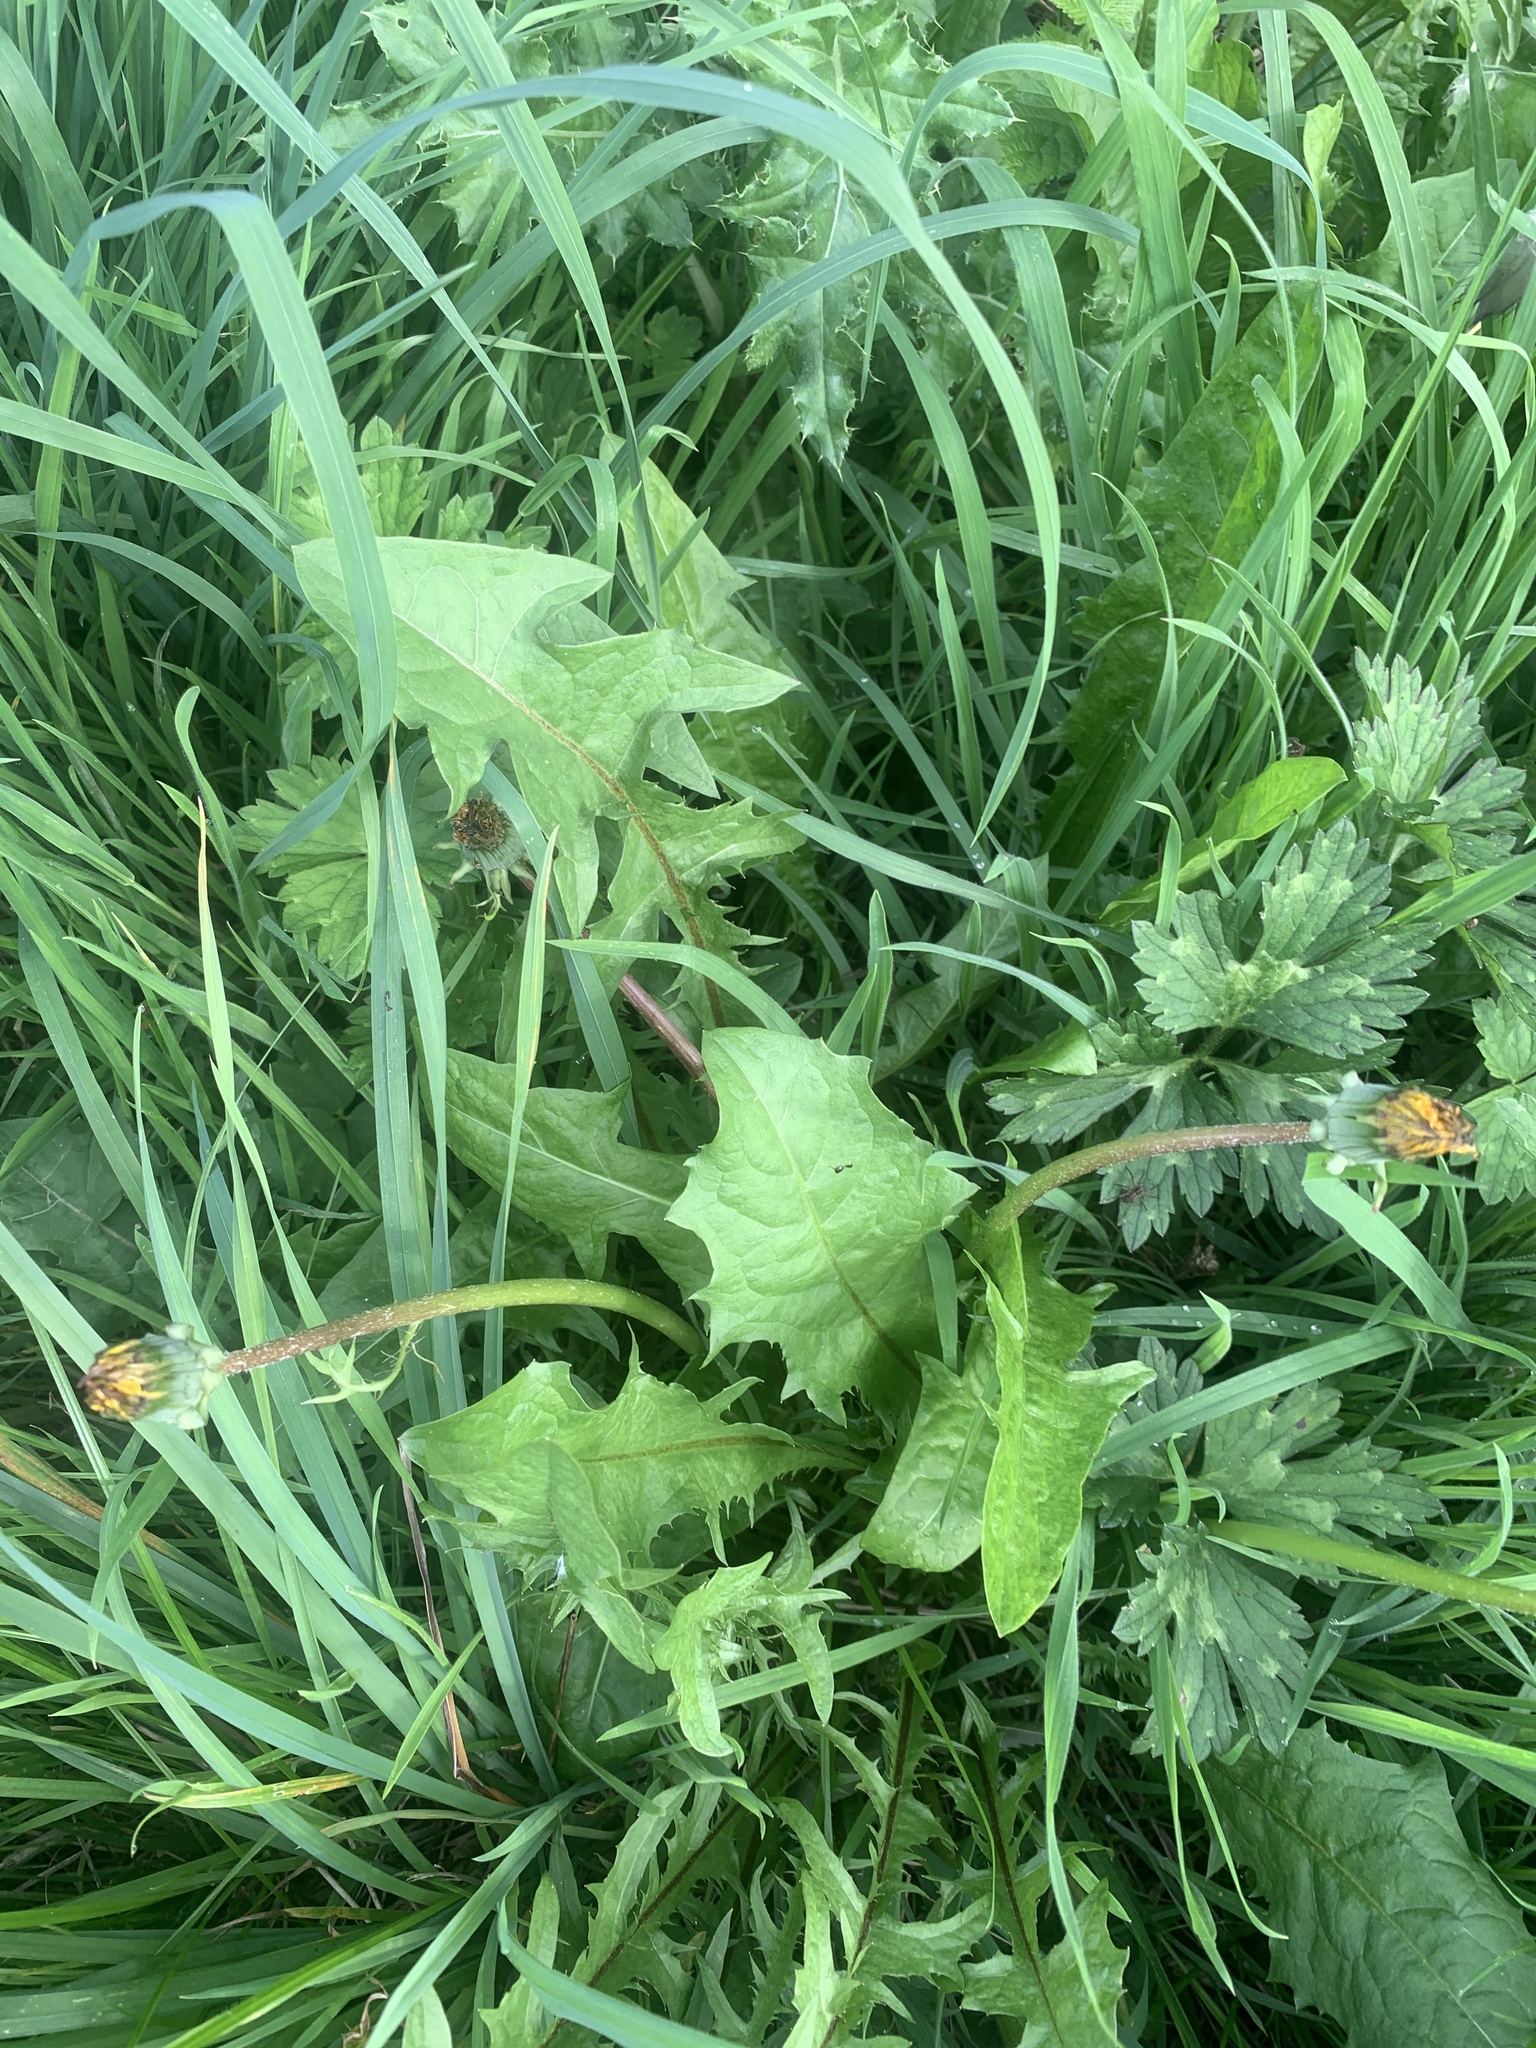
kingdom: Plantae
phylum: Tracheophyta
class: Magnoliopsida
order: Asterales
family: Asteraceae
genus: Taraxacum
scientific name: Taraxacum officinale
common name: Common dandelion
